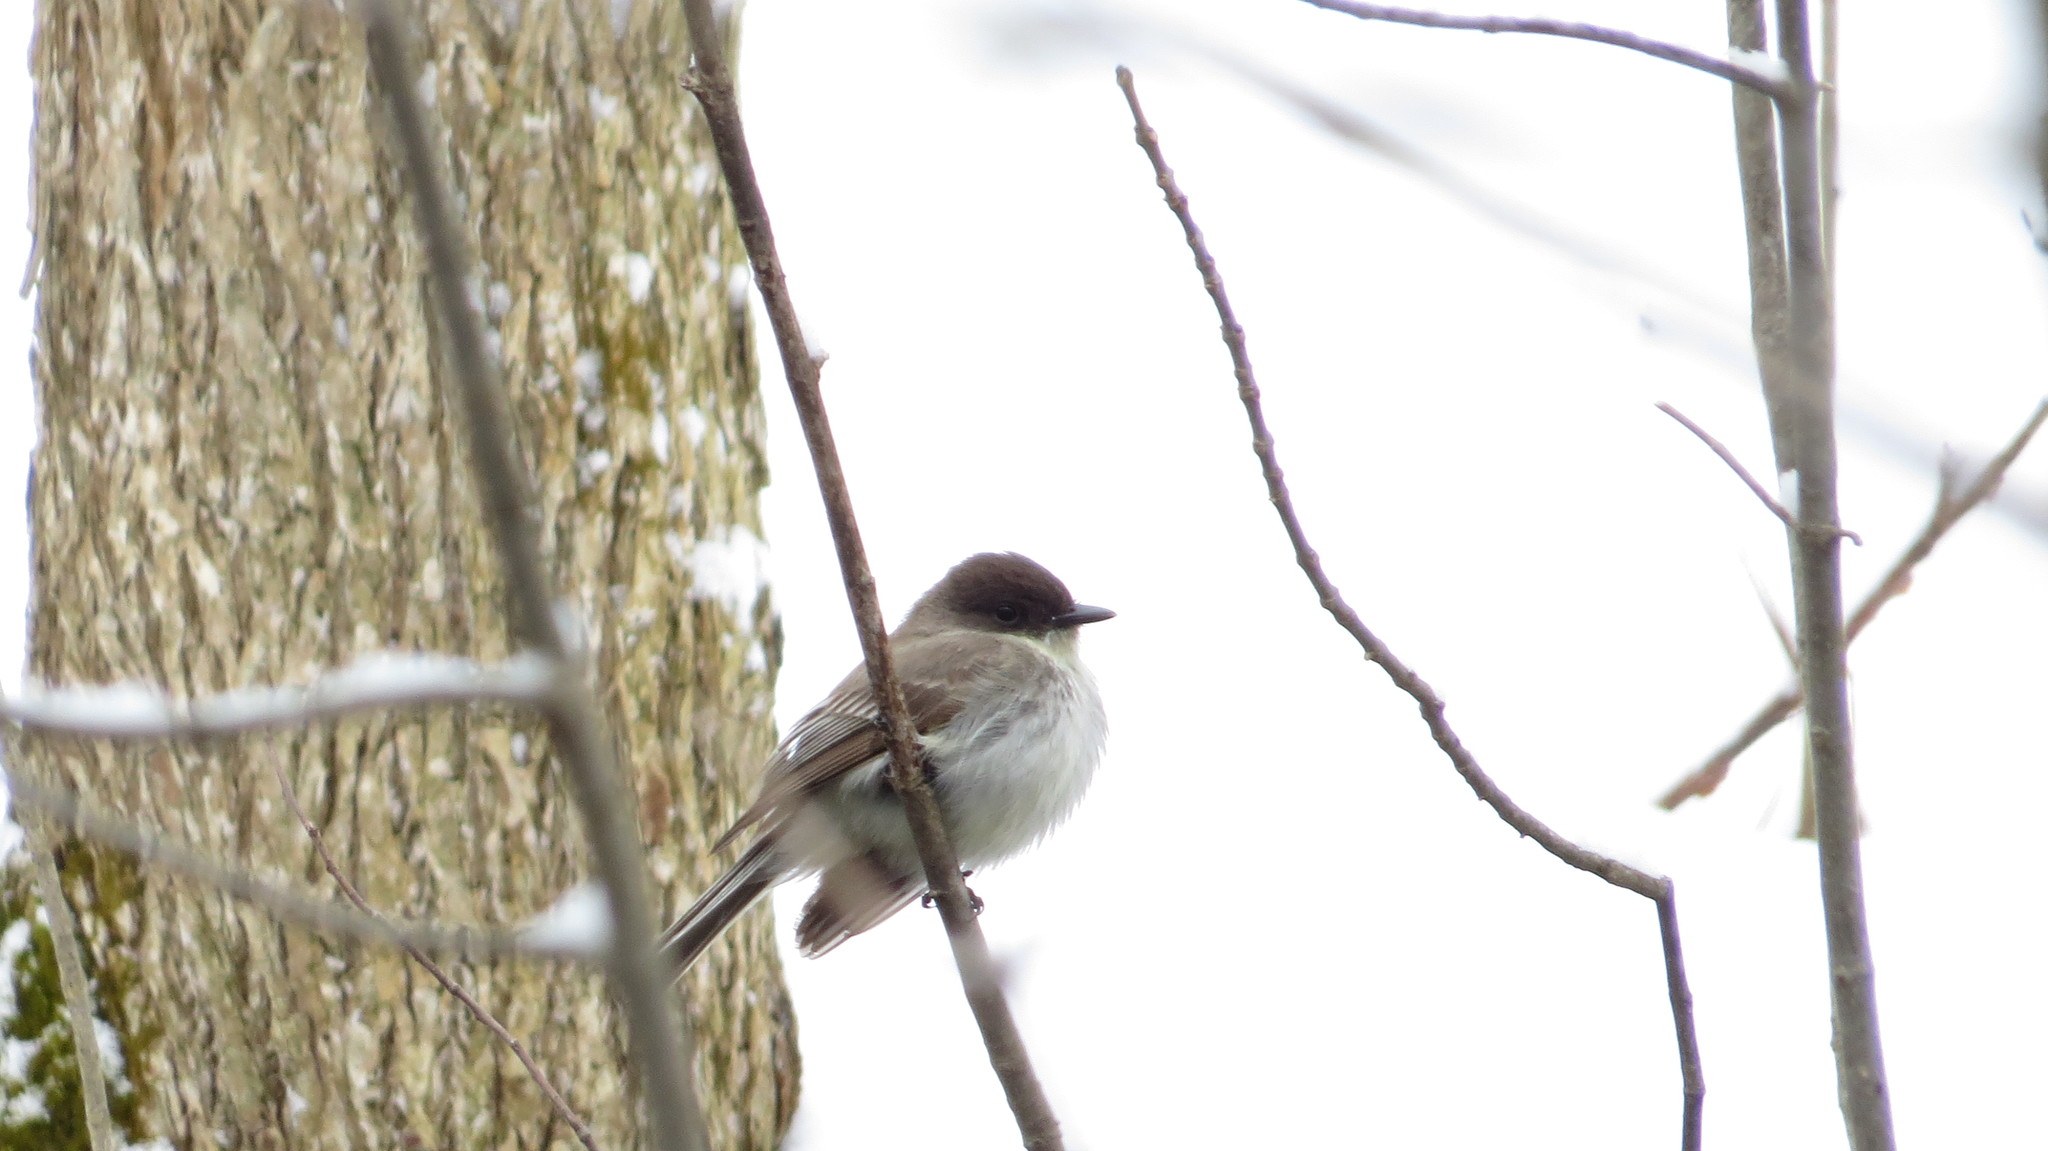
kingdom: Animalia
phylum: Chordata
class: Aves
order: Passeriformes
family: Tyrannidae
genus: Sayornis
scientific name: Sayornis phoebe
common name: Eastern phoebe
